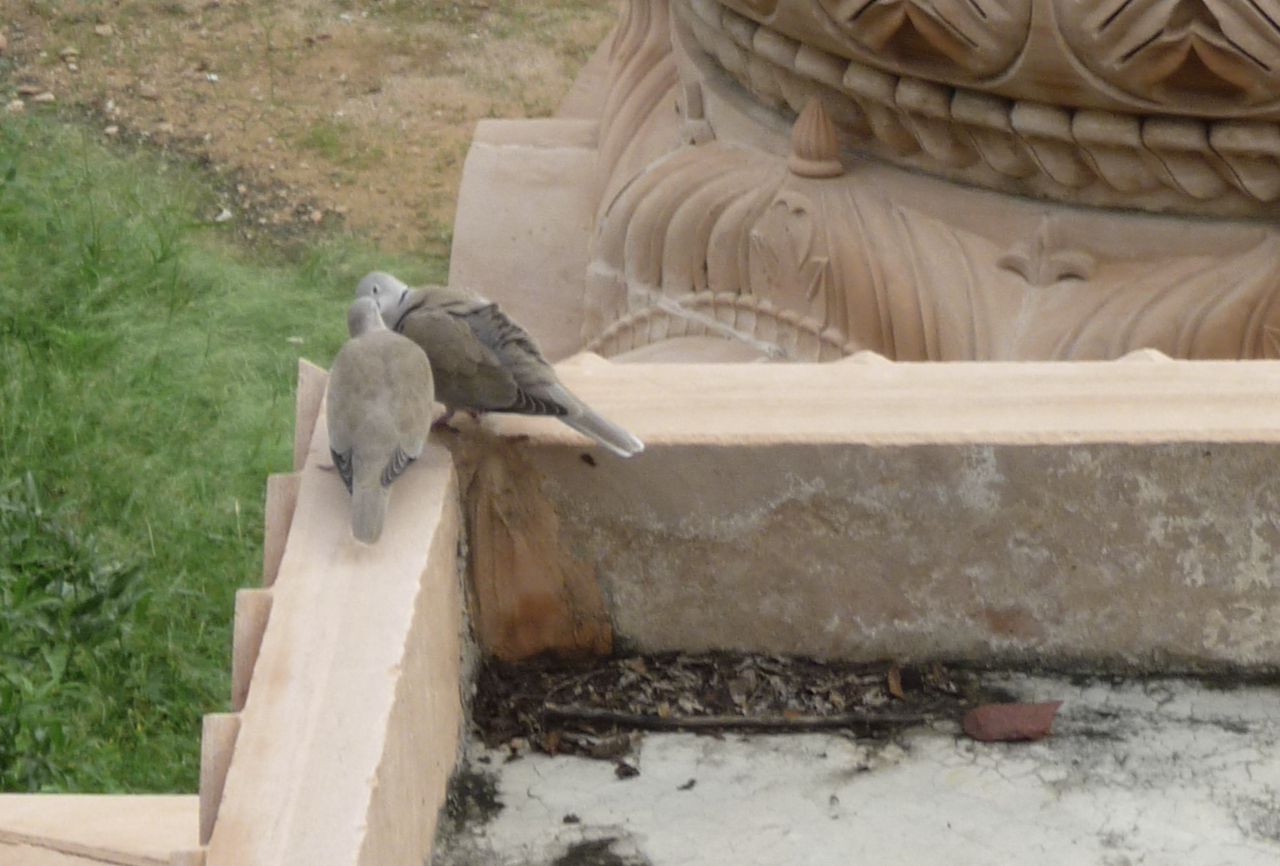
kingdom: Animalia
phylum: Chordata
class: Aves
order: Columbiformes
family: Columbidae
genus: Streptopelia
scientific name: Streptopelia decaocto
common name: Eurasian collared dove
